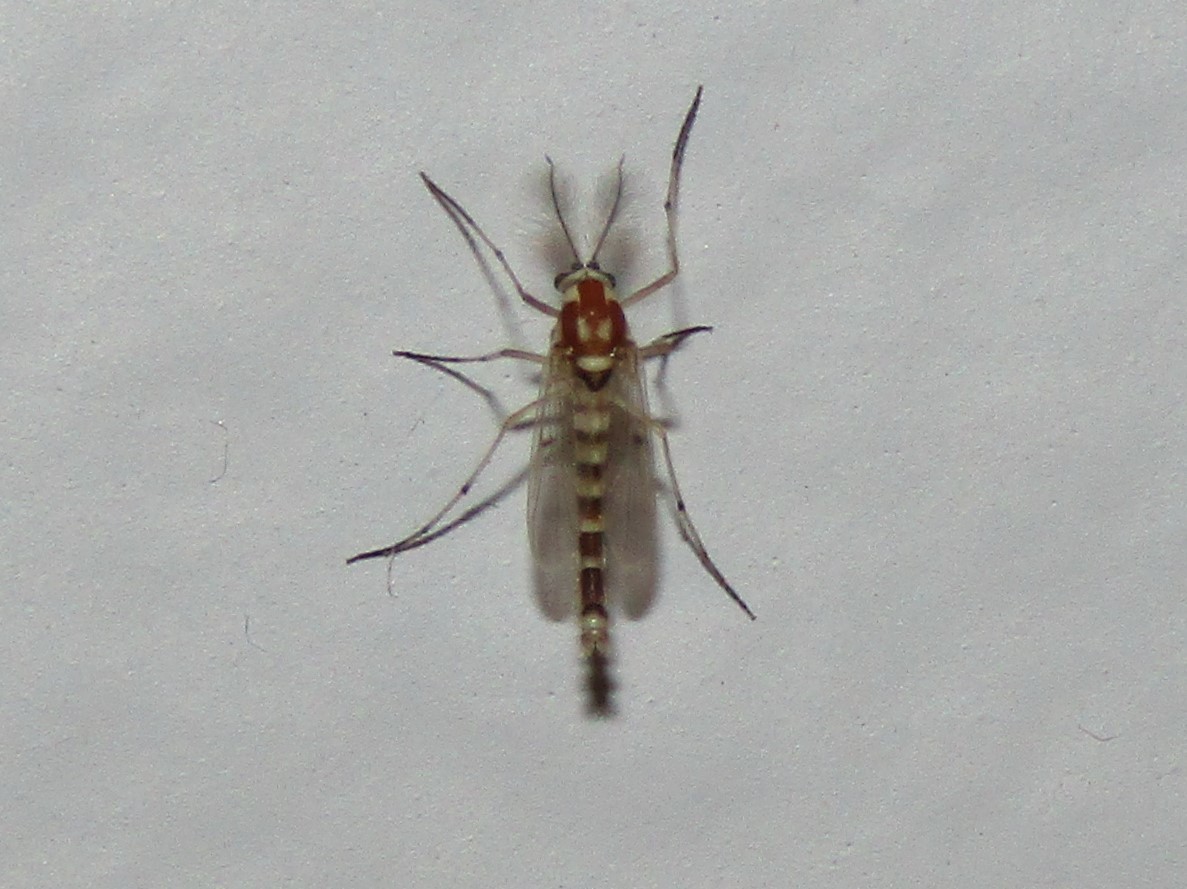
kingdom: Animalia
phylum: Arthropoda
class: Insecta
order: Diptera
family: Chironomidae
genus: Procladius
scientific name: Procladius bellus
